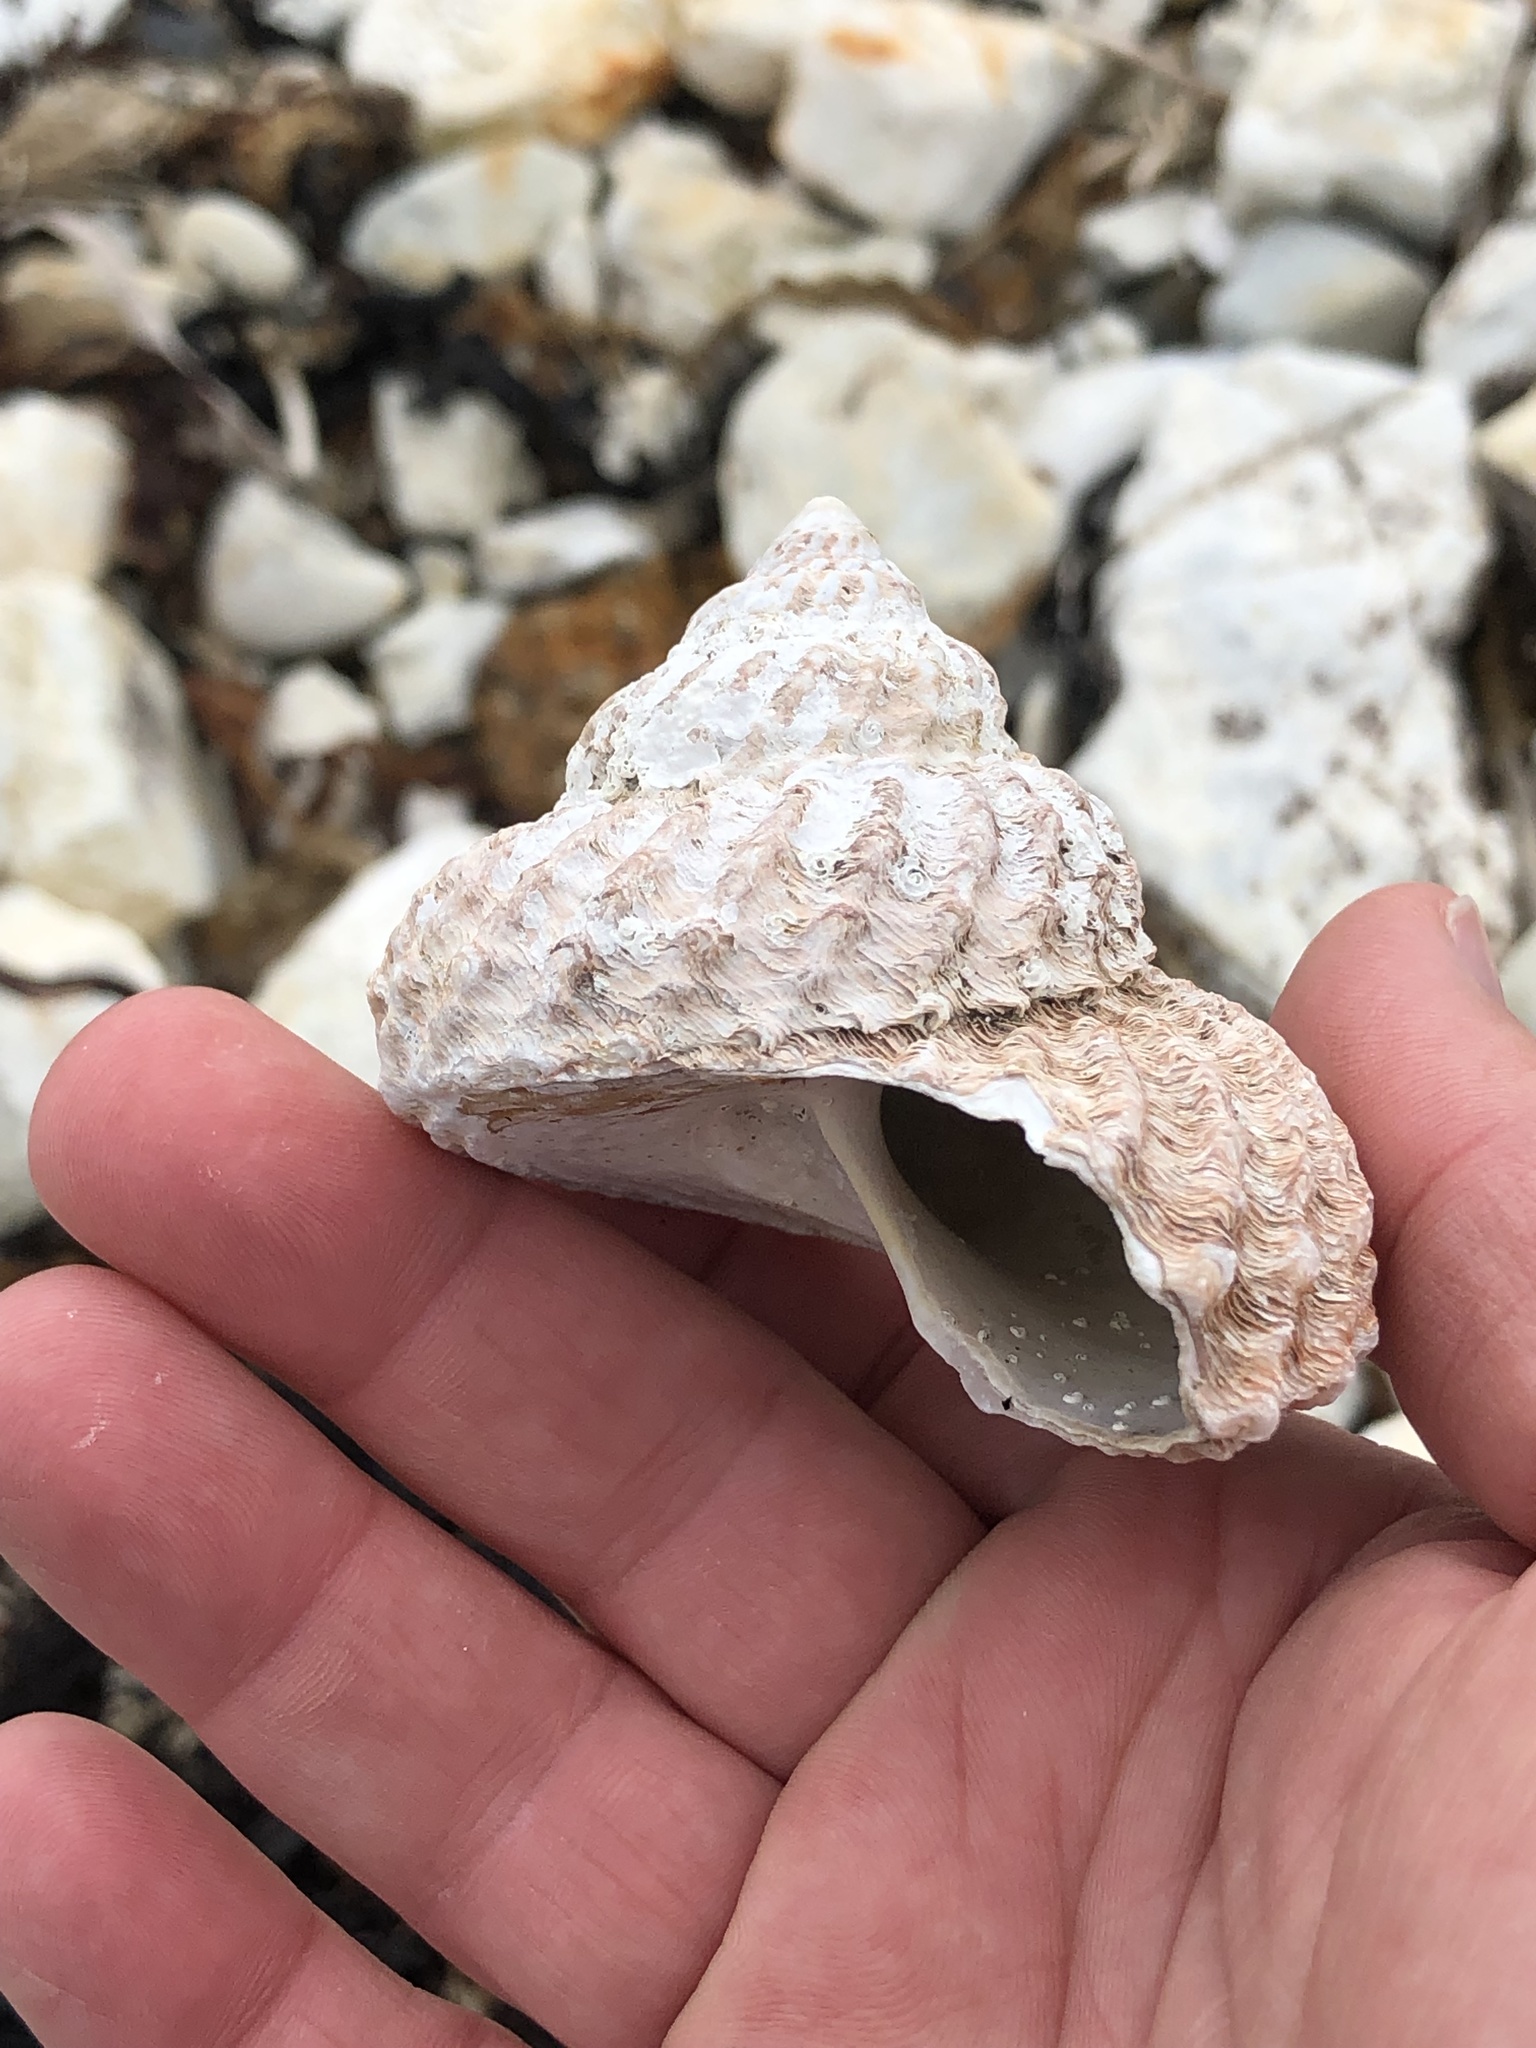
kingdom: Animalia
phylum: Mollusca
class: Gastropoda
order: Trochida
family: Turbinidae
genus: Cookia
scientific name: Cookia sulcata
